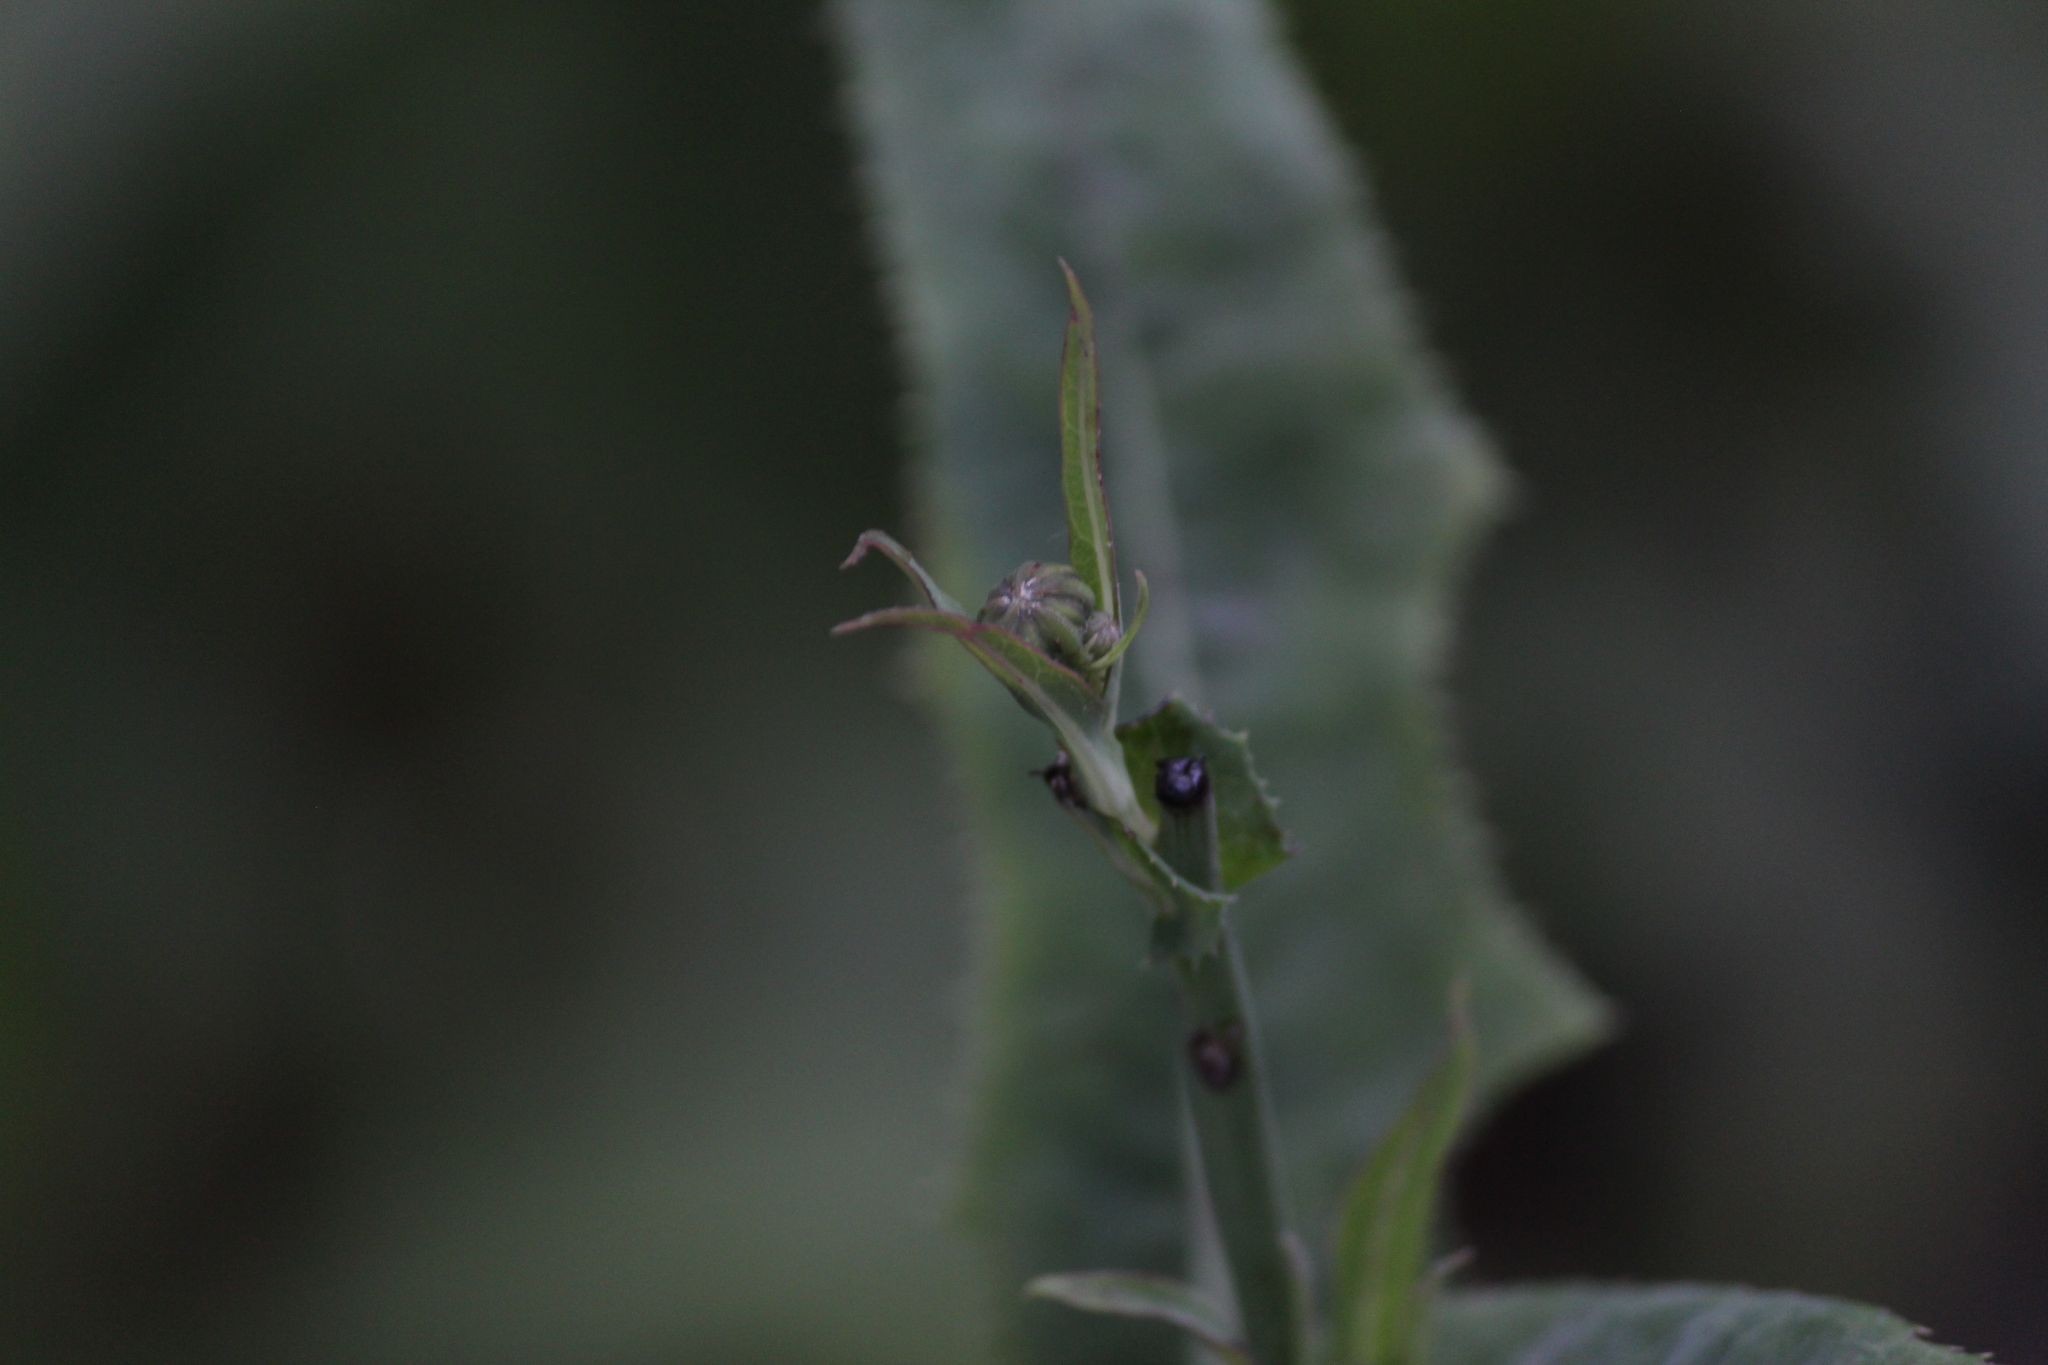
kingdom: Plantae
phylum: Tracheophyta
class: Magnoliopsida
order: Asterales
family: Asteraceae
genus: Sonchus
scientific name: Sonchus arvensis
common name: Perennial sow-thistle
